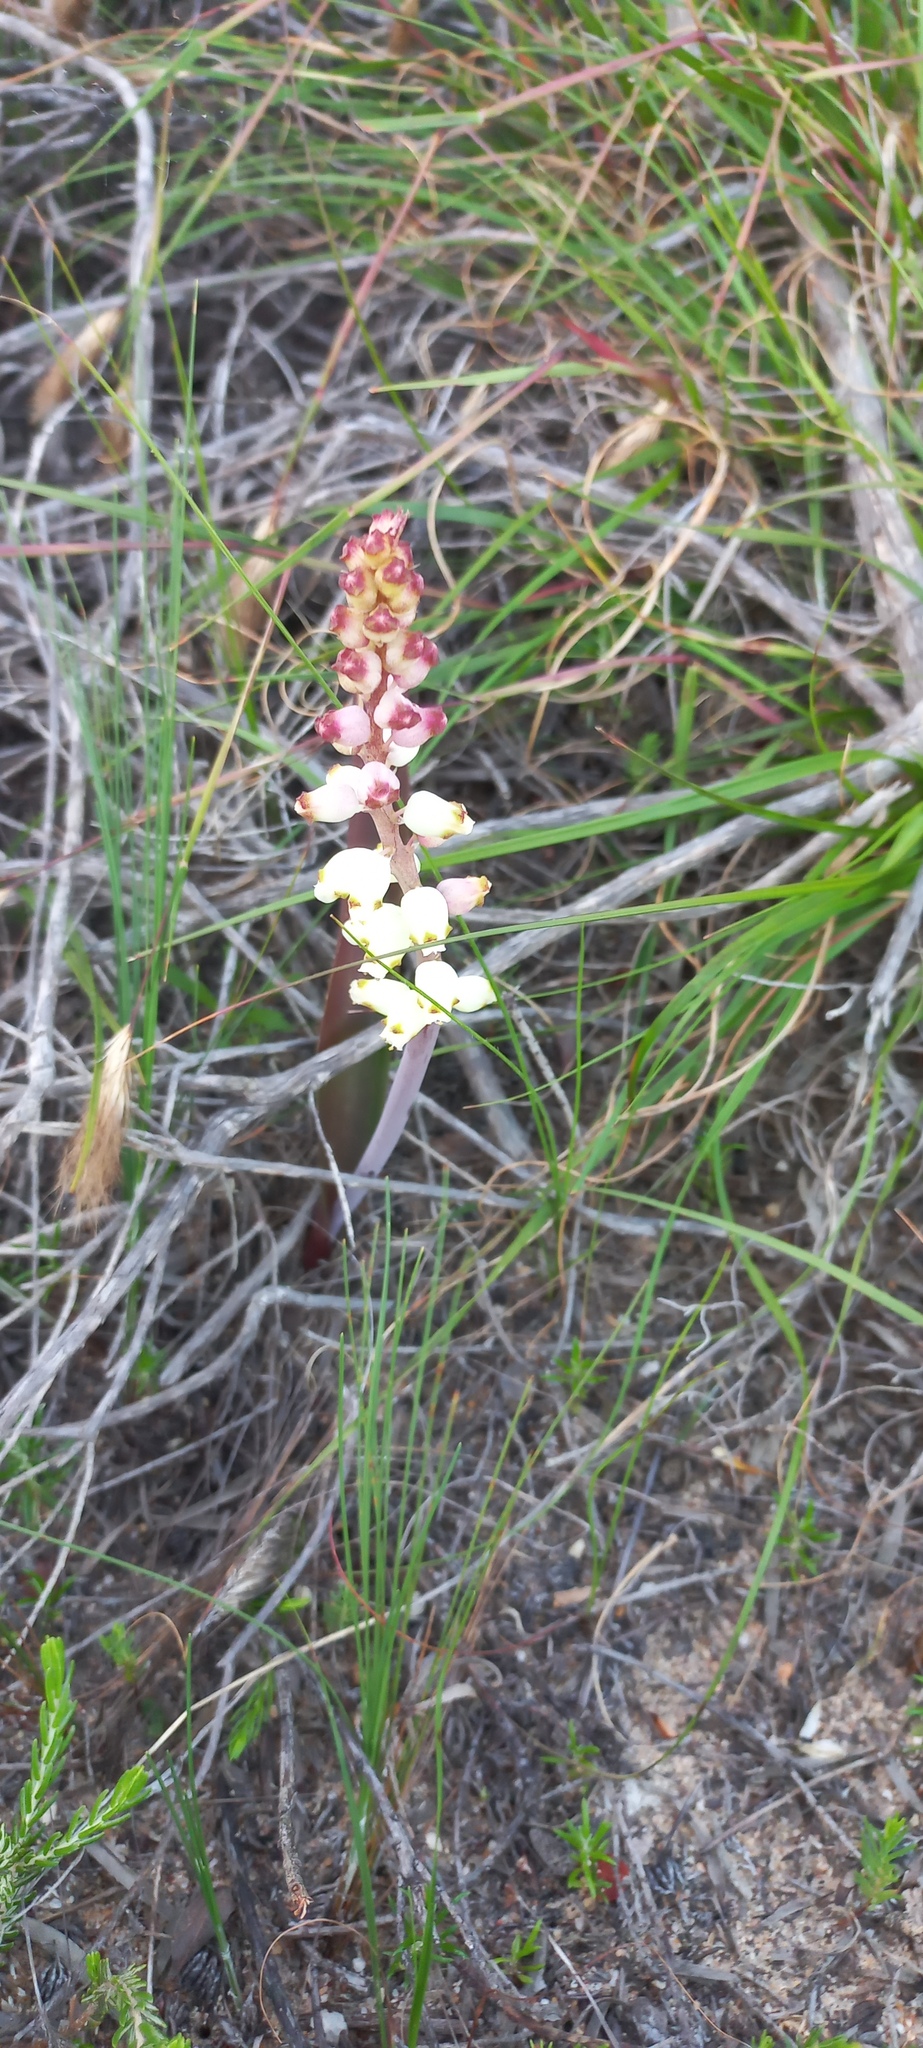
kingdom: Plantae
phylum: Tracheophyta
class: Liliopsida
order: Asparagales
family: Asparagaceae
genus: Lachenalia
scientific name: Lachenalia peersii
